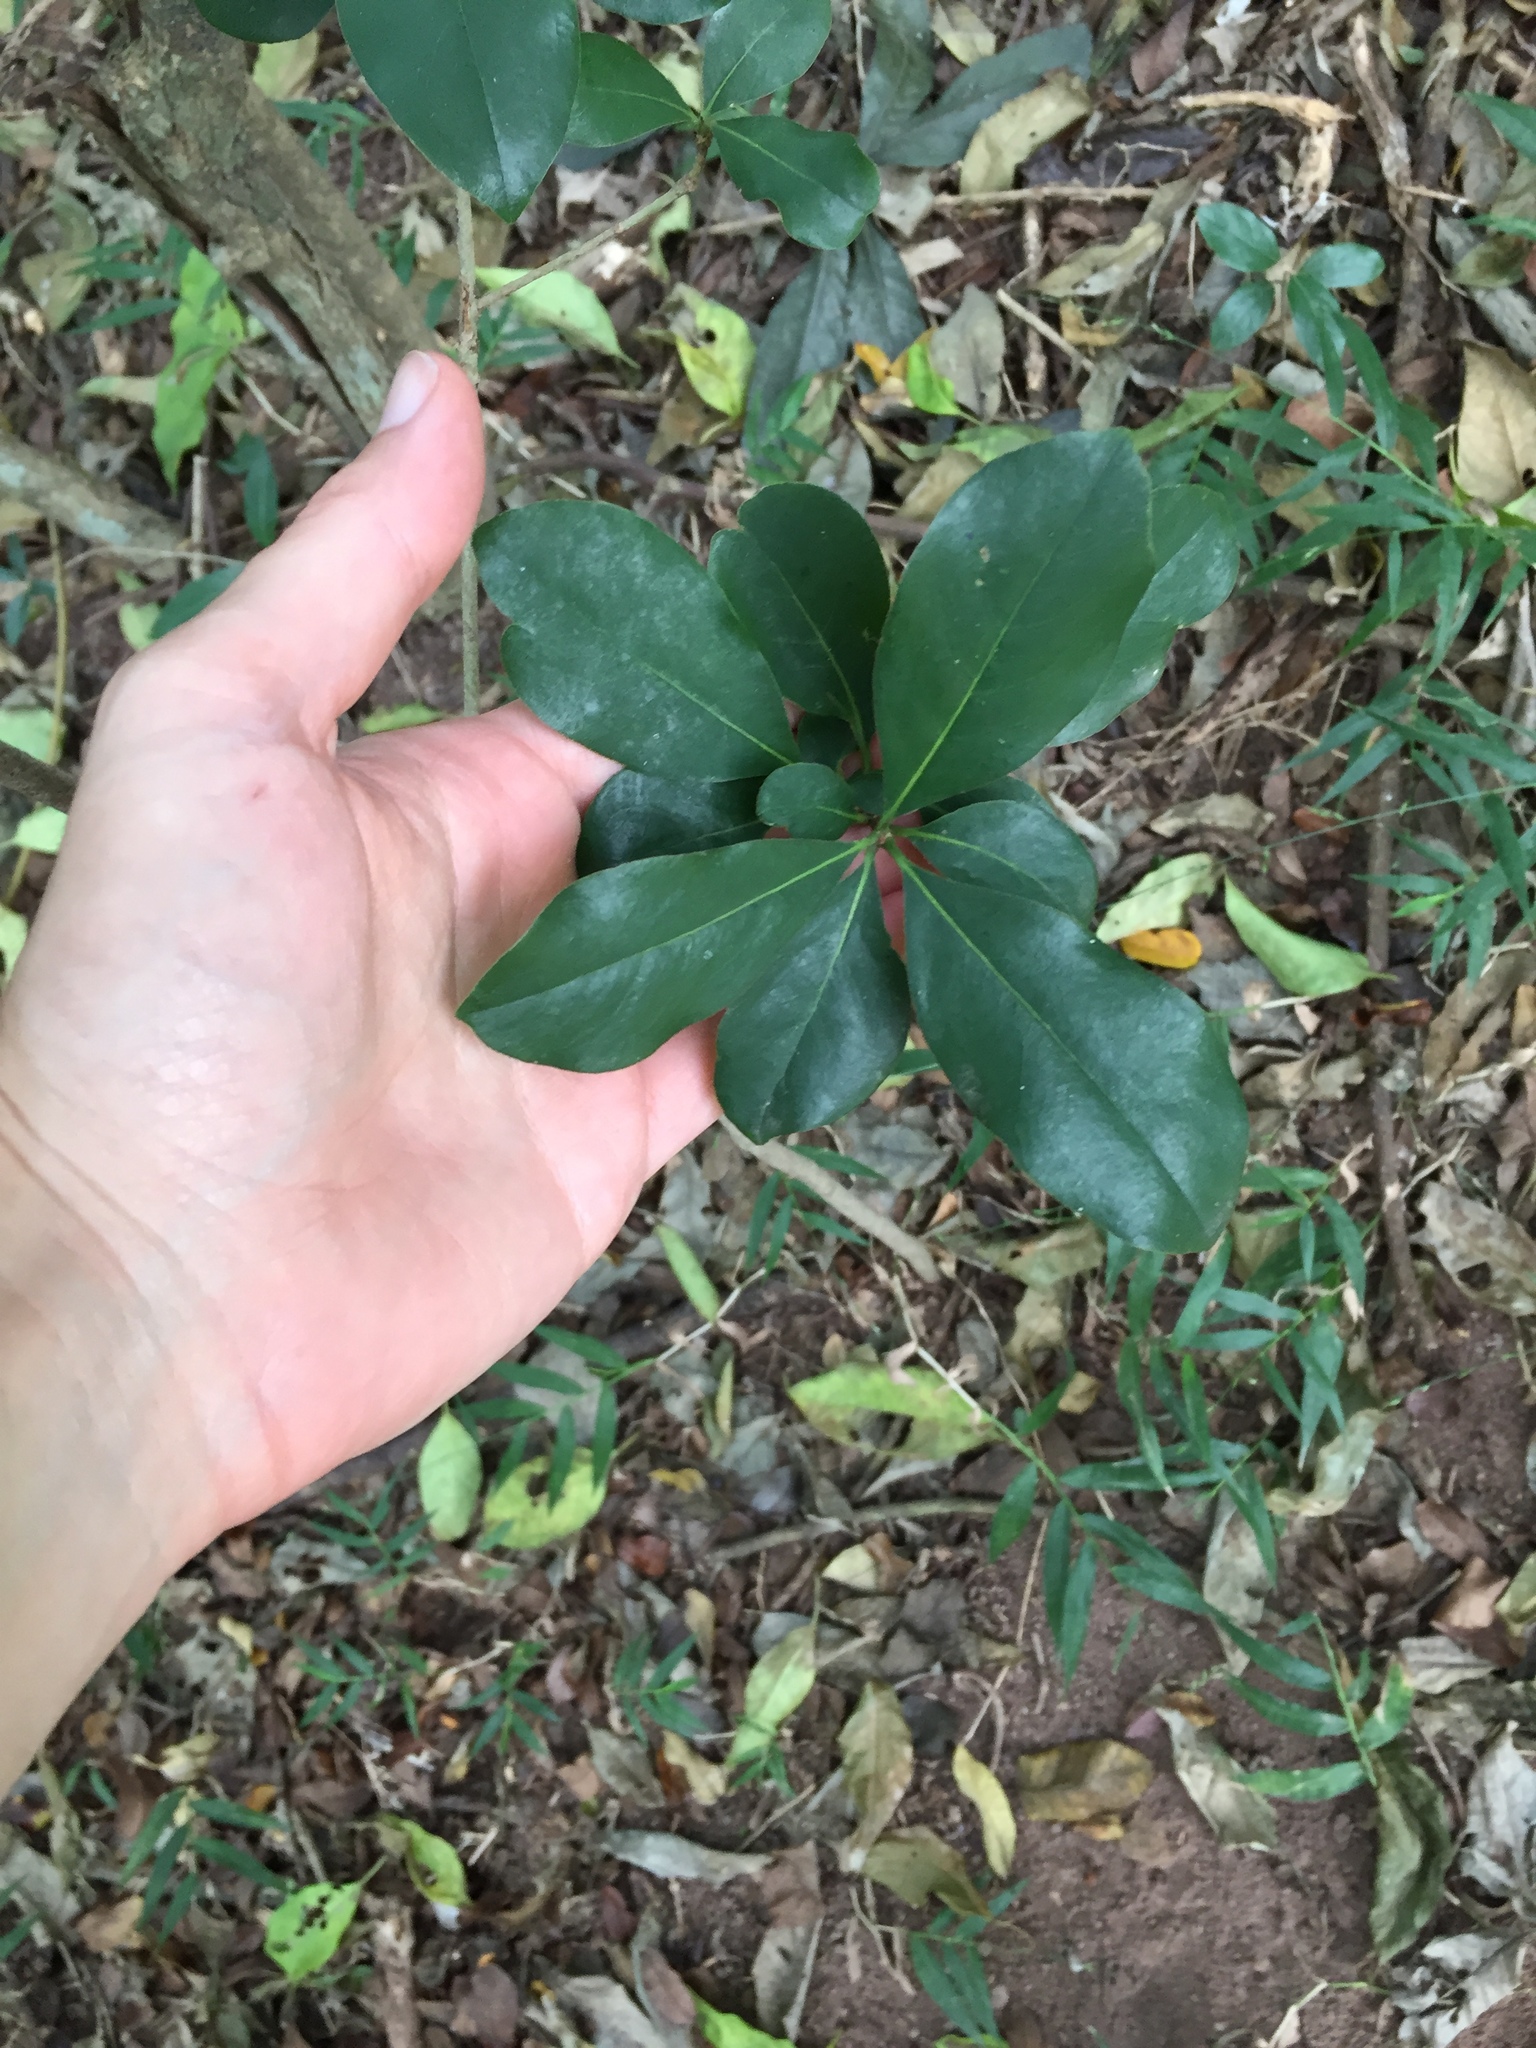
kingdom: Plantae
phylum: Tracheophyta
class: Magnoliopsida
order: Apiales
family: Pittosporaceae
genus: Pittosporum
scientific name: Pittosporum viridiflorum
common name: Cape cheesewood
